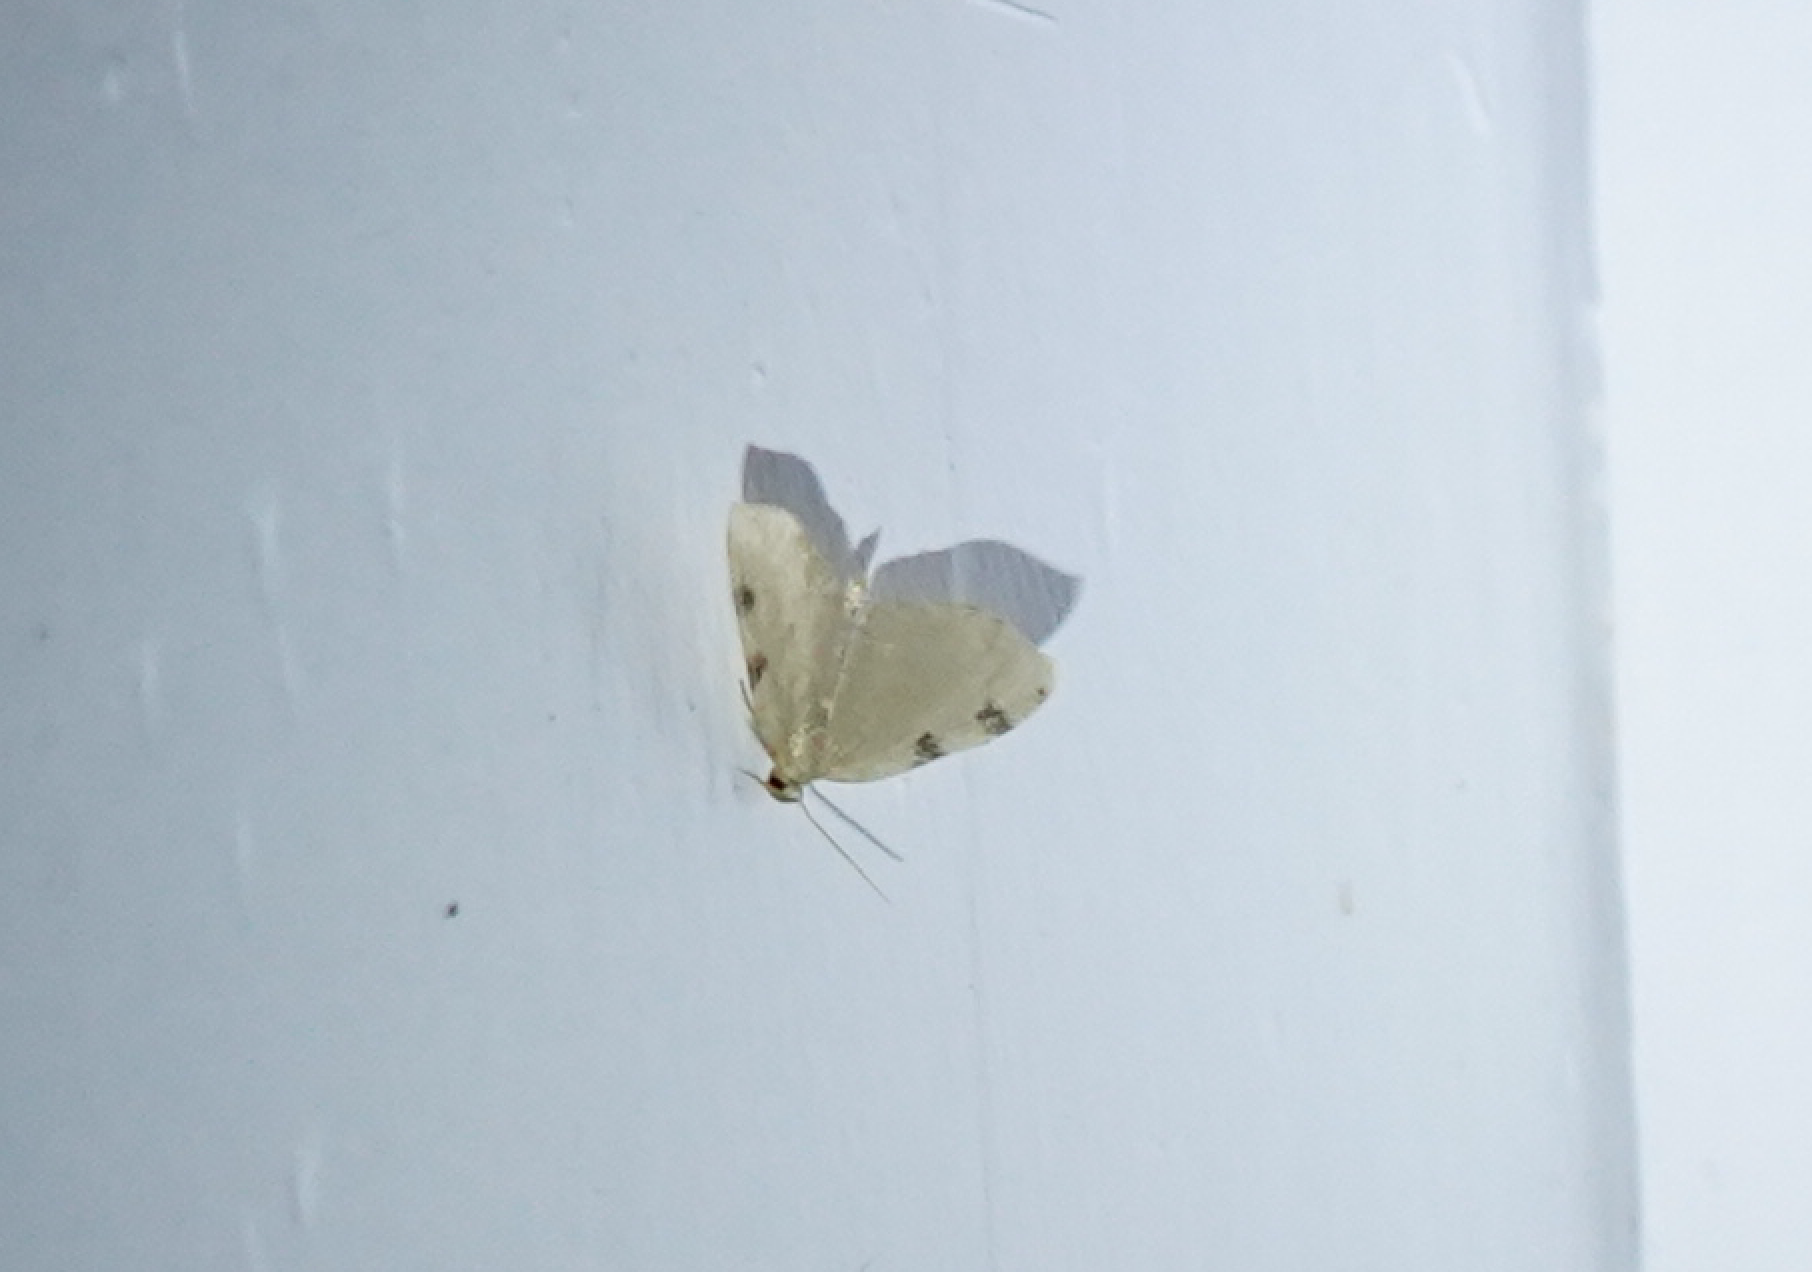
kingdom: Animalia
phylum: Arthropoda
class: Insecta
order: Lepidoptera
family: Geometridae
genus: Heterophleps
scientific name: Heterophleps triguttaria
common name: Three-spotted fillip
